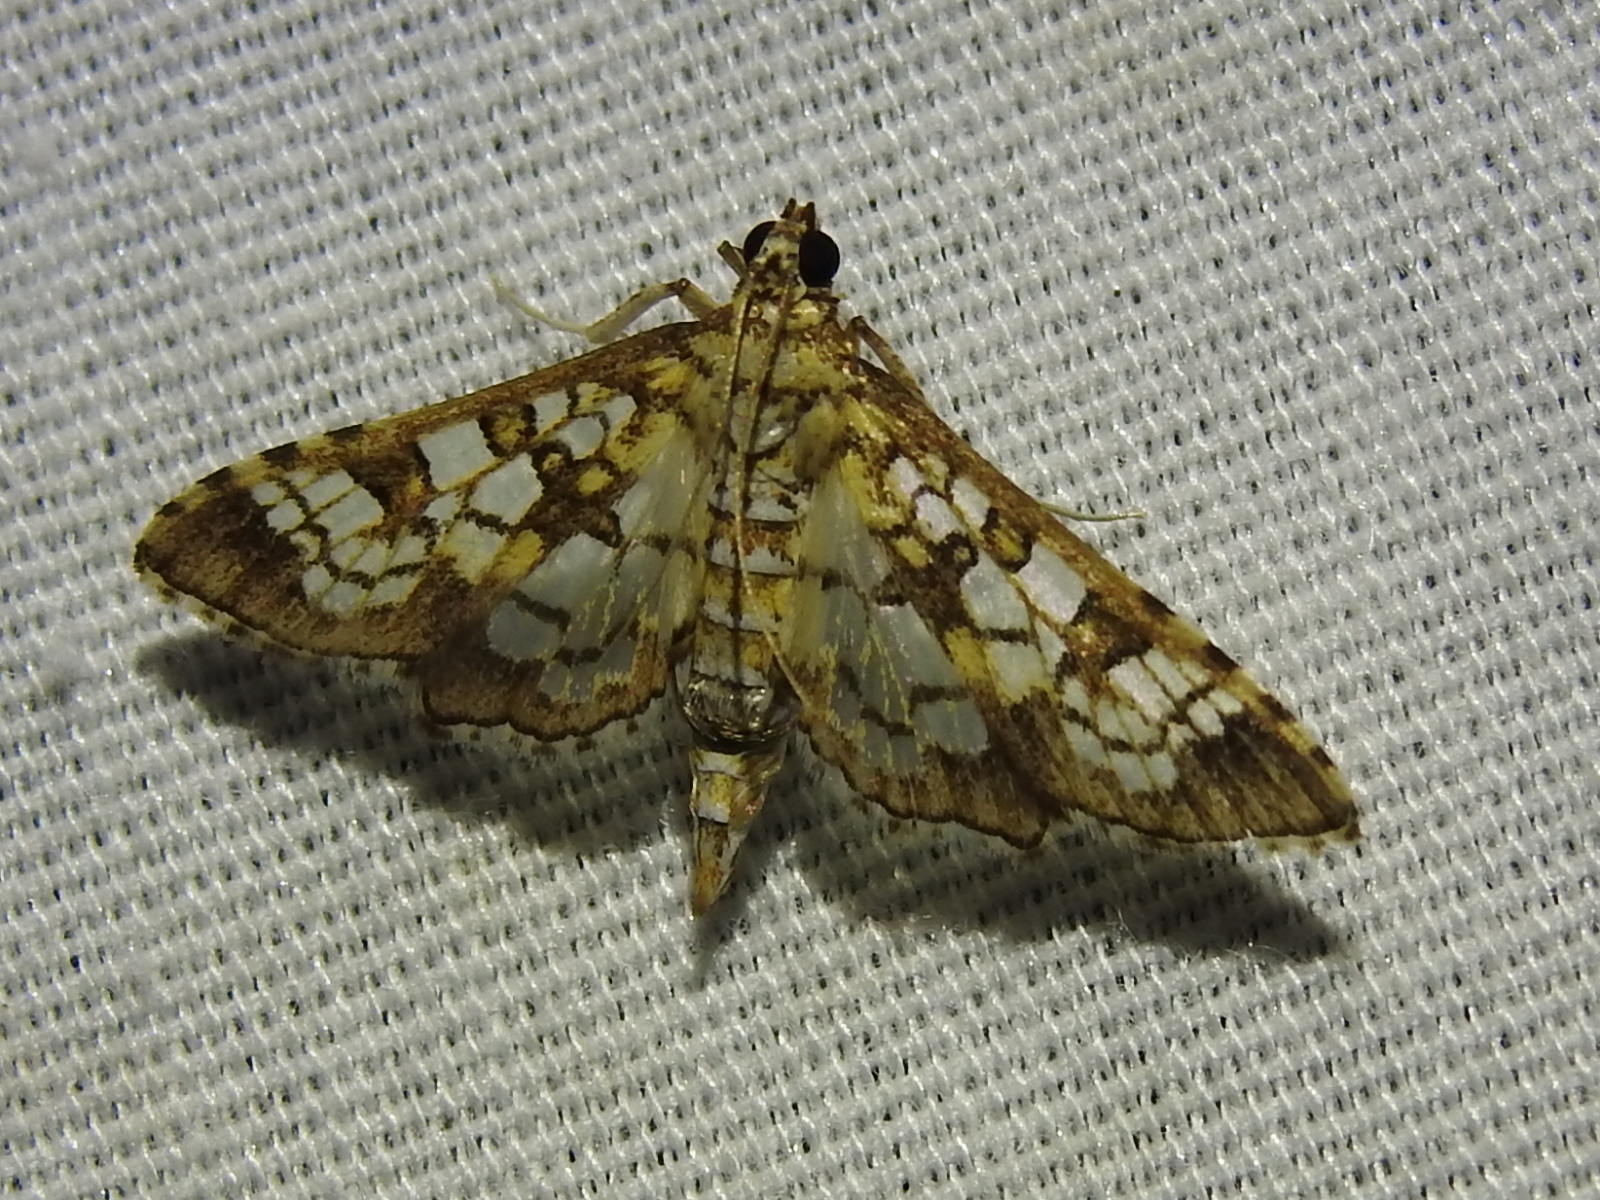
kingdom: Animalia
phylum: Arthropoda
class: Insecta
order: Lepidoptera
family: Crambidae
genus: Samea
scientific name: Samea ecclesialis
